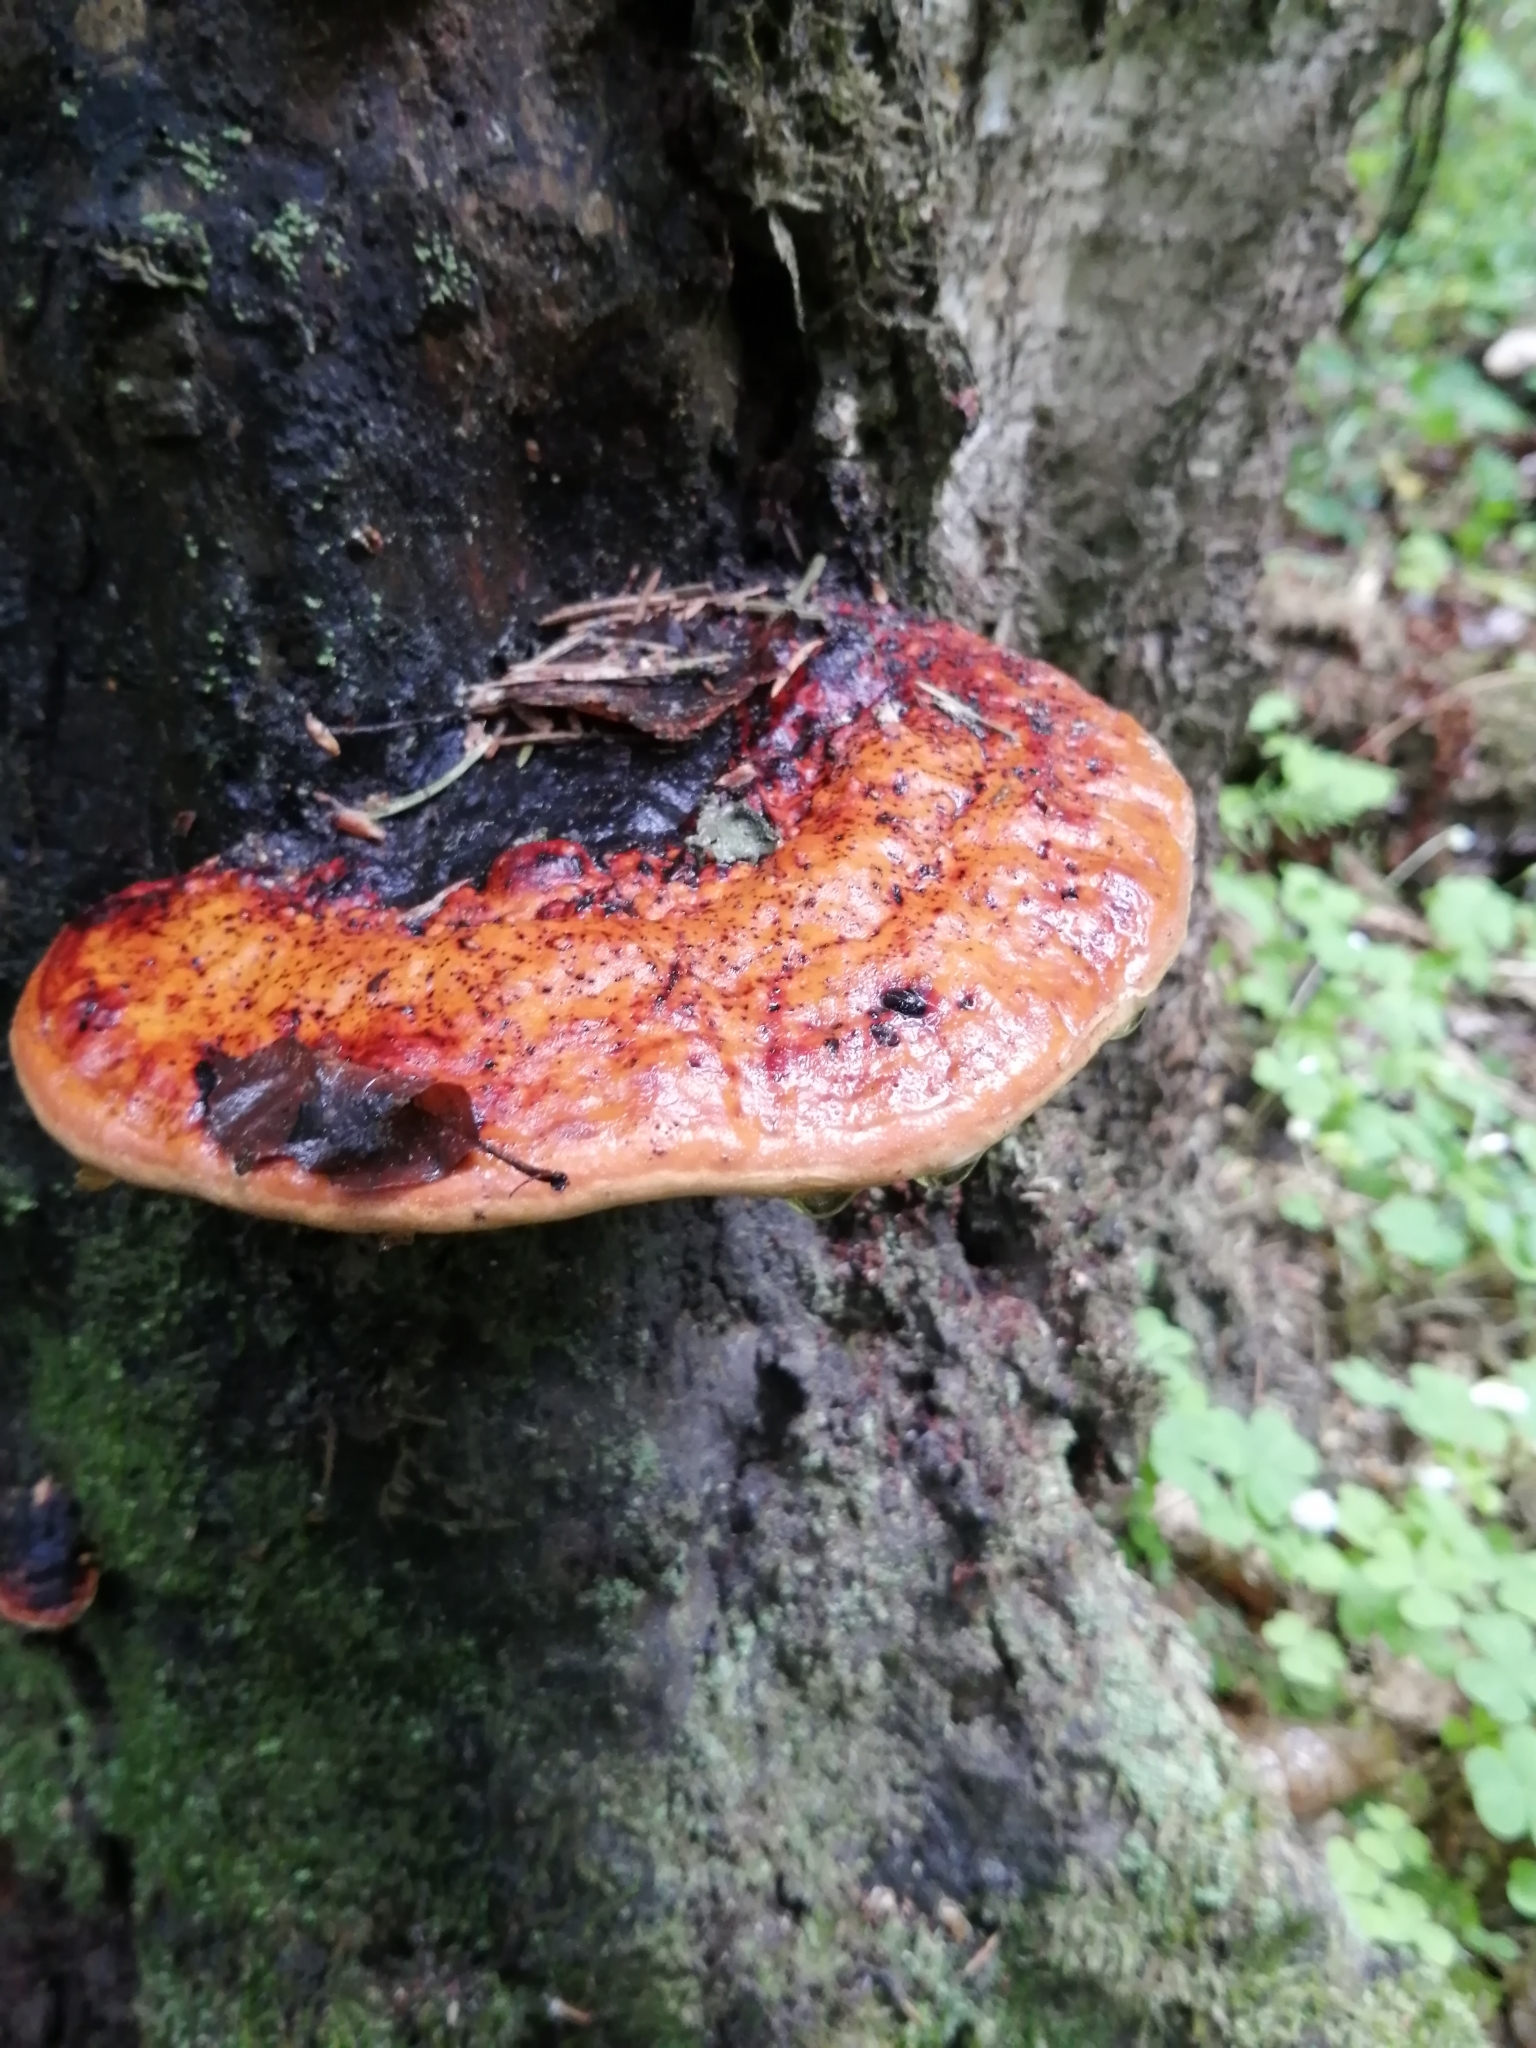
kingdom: Fungi
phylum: Basidiomycota
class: Agaricomycetes
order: Polyporales
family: Fomitopsidaceae
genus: Fomitopsis
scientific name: Fomitopsis pinicola
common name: Red-belted bracket
